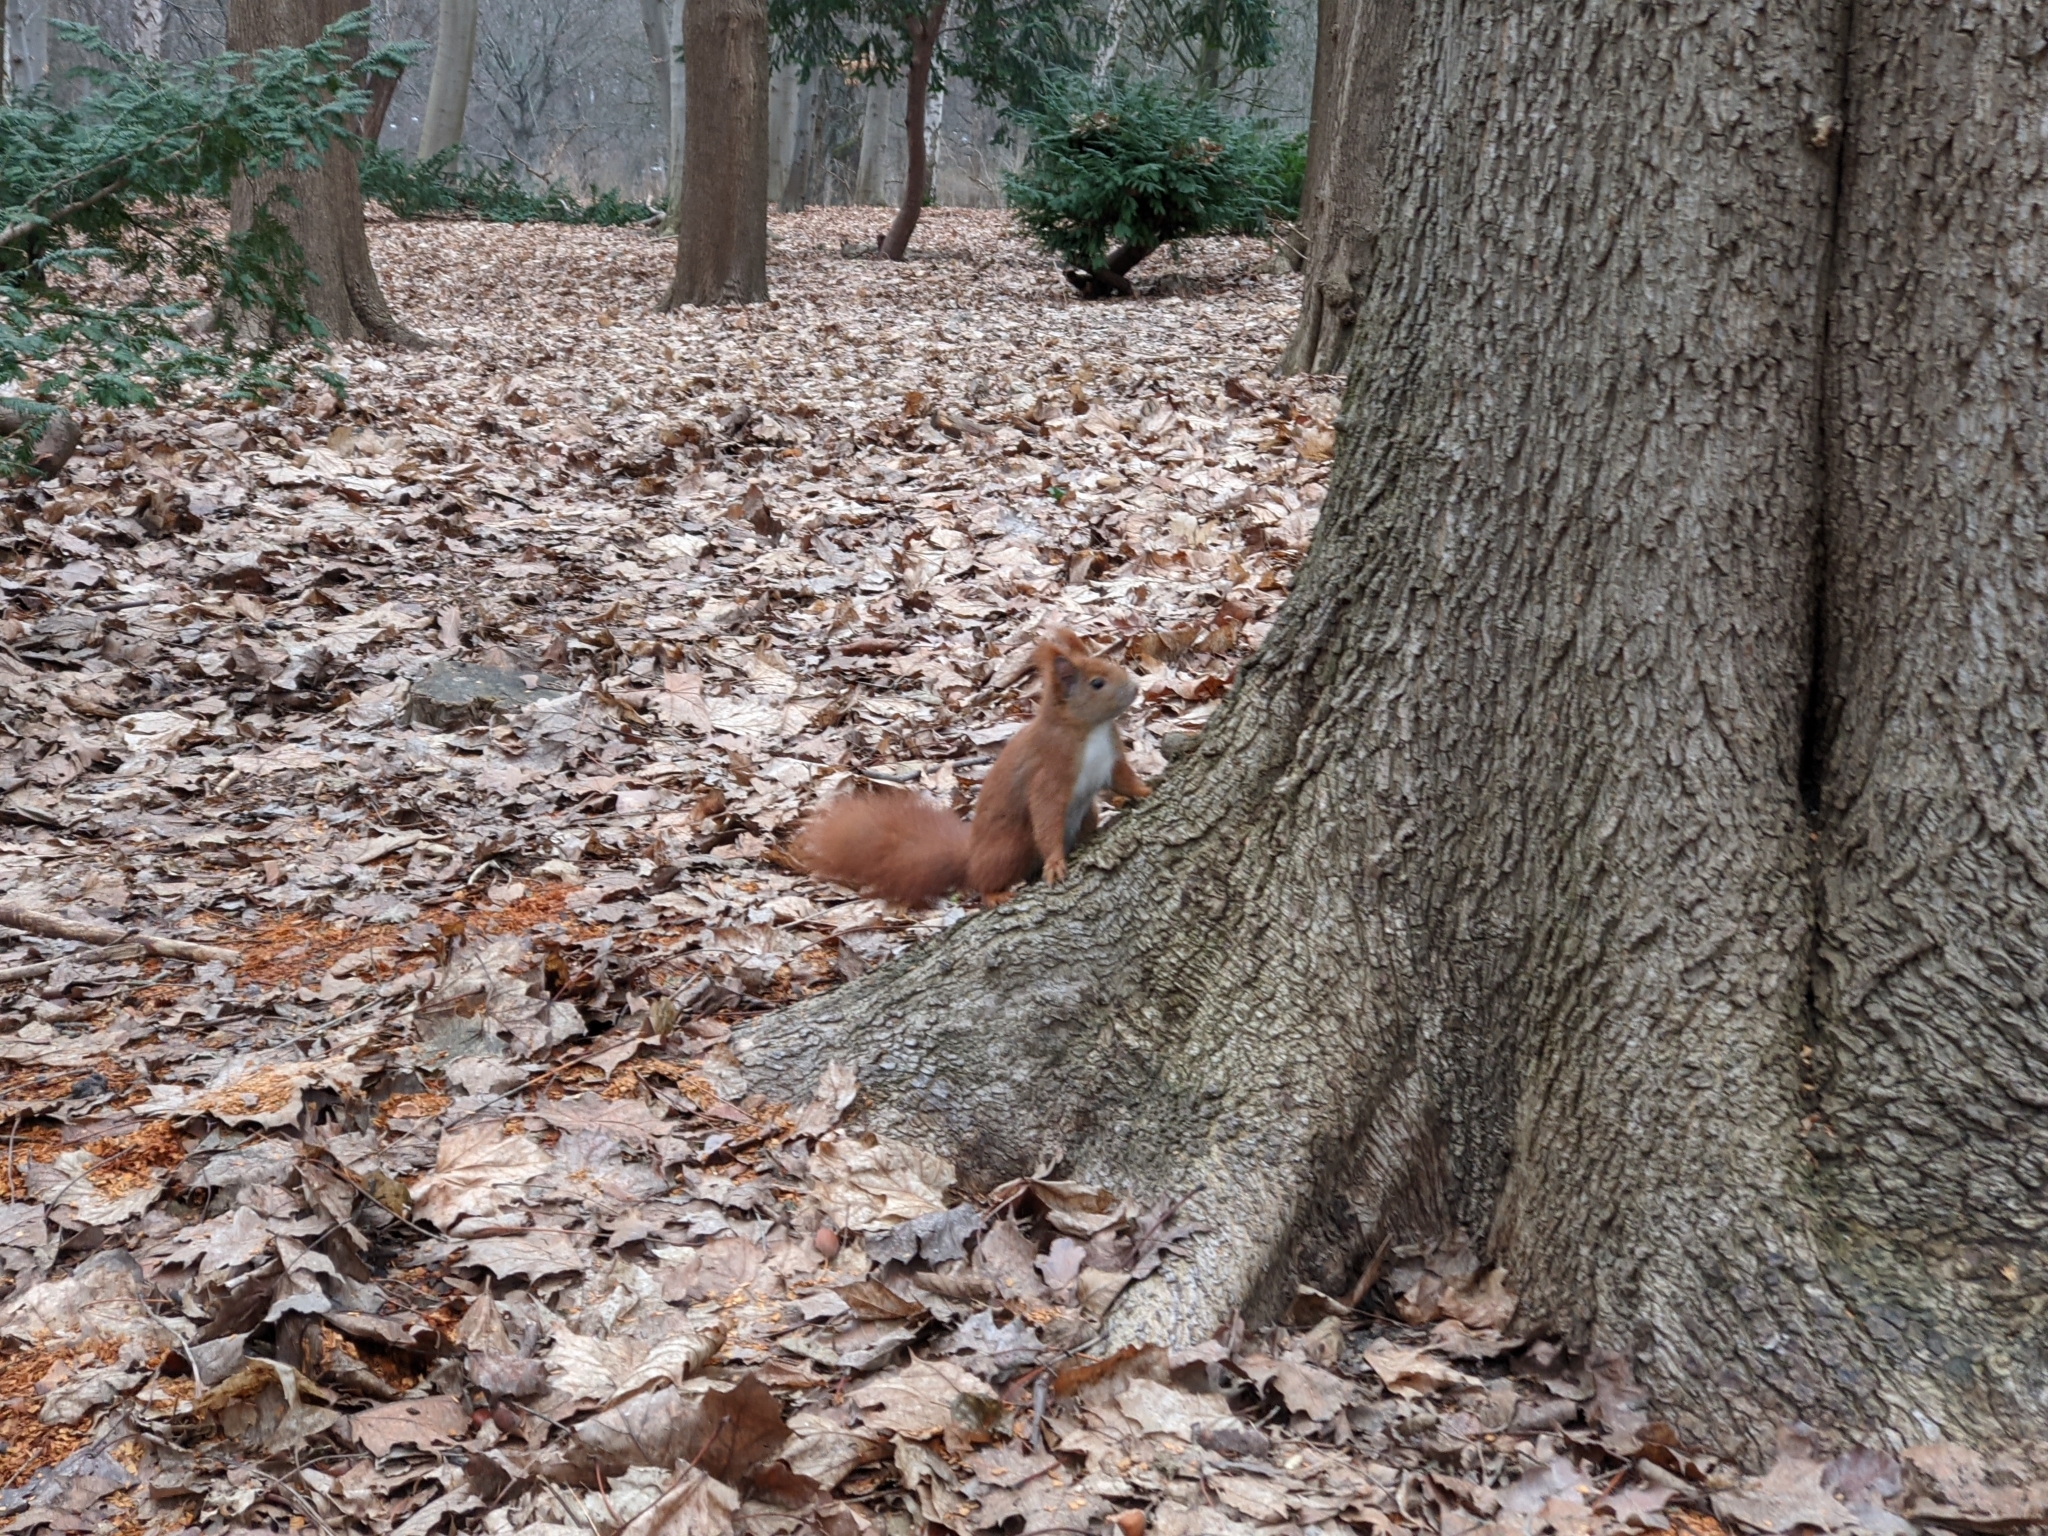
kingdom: Animalia
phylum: Chordata
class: Mammalia
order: Rodentia
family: Sciuridae
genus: Sciurus
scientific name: Sciurus vulgaris
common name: Eurasian red squirrel
